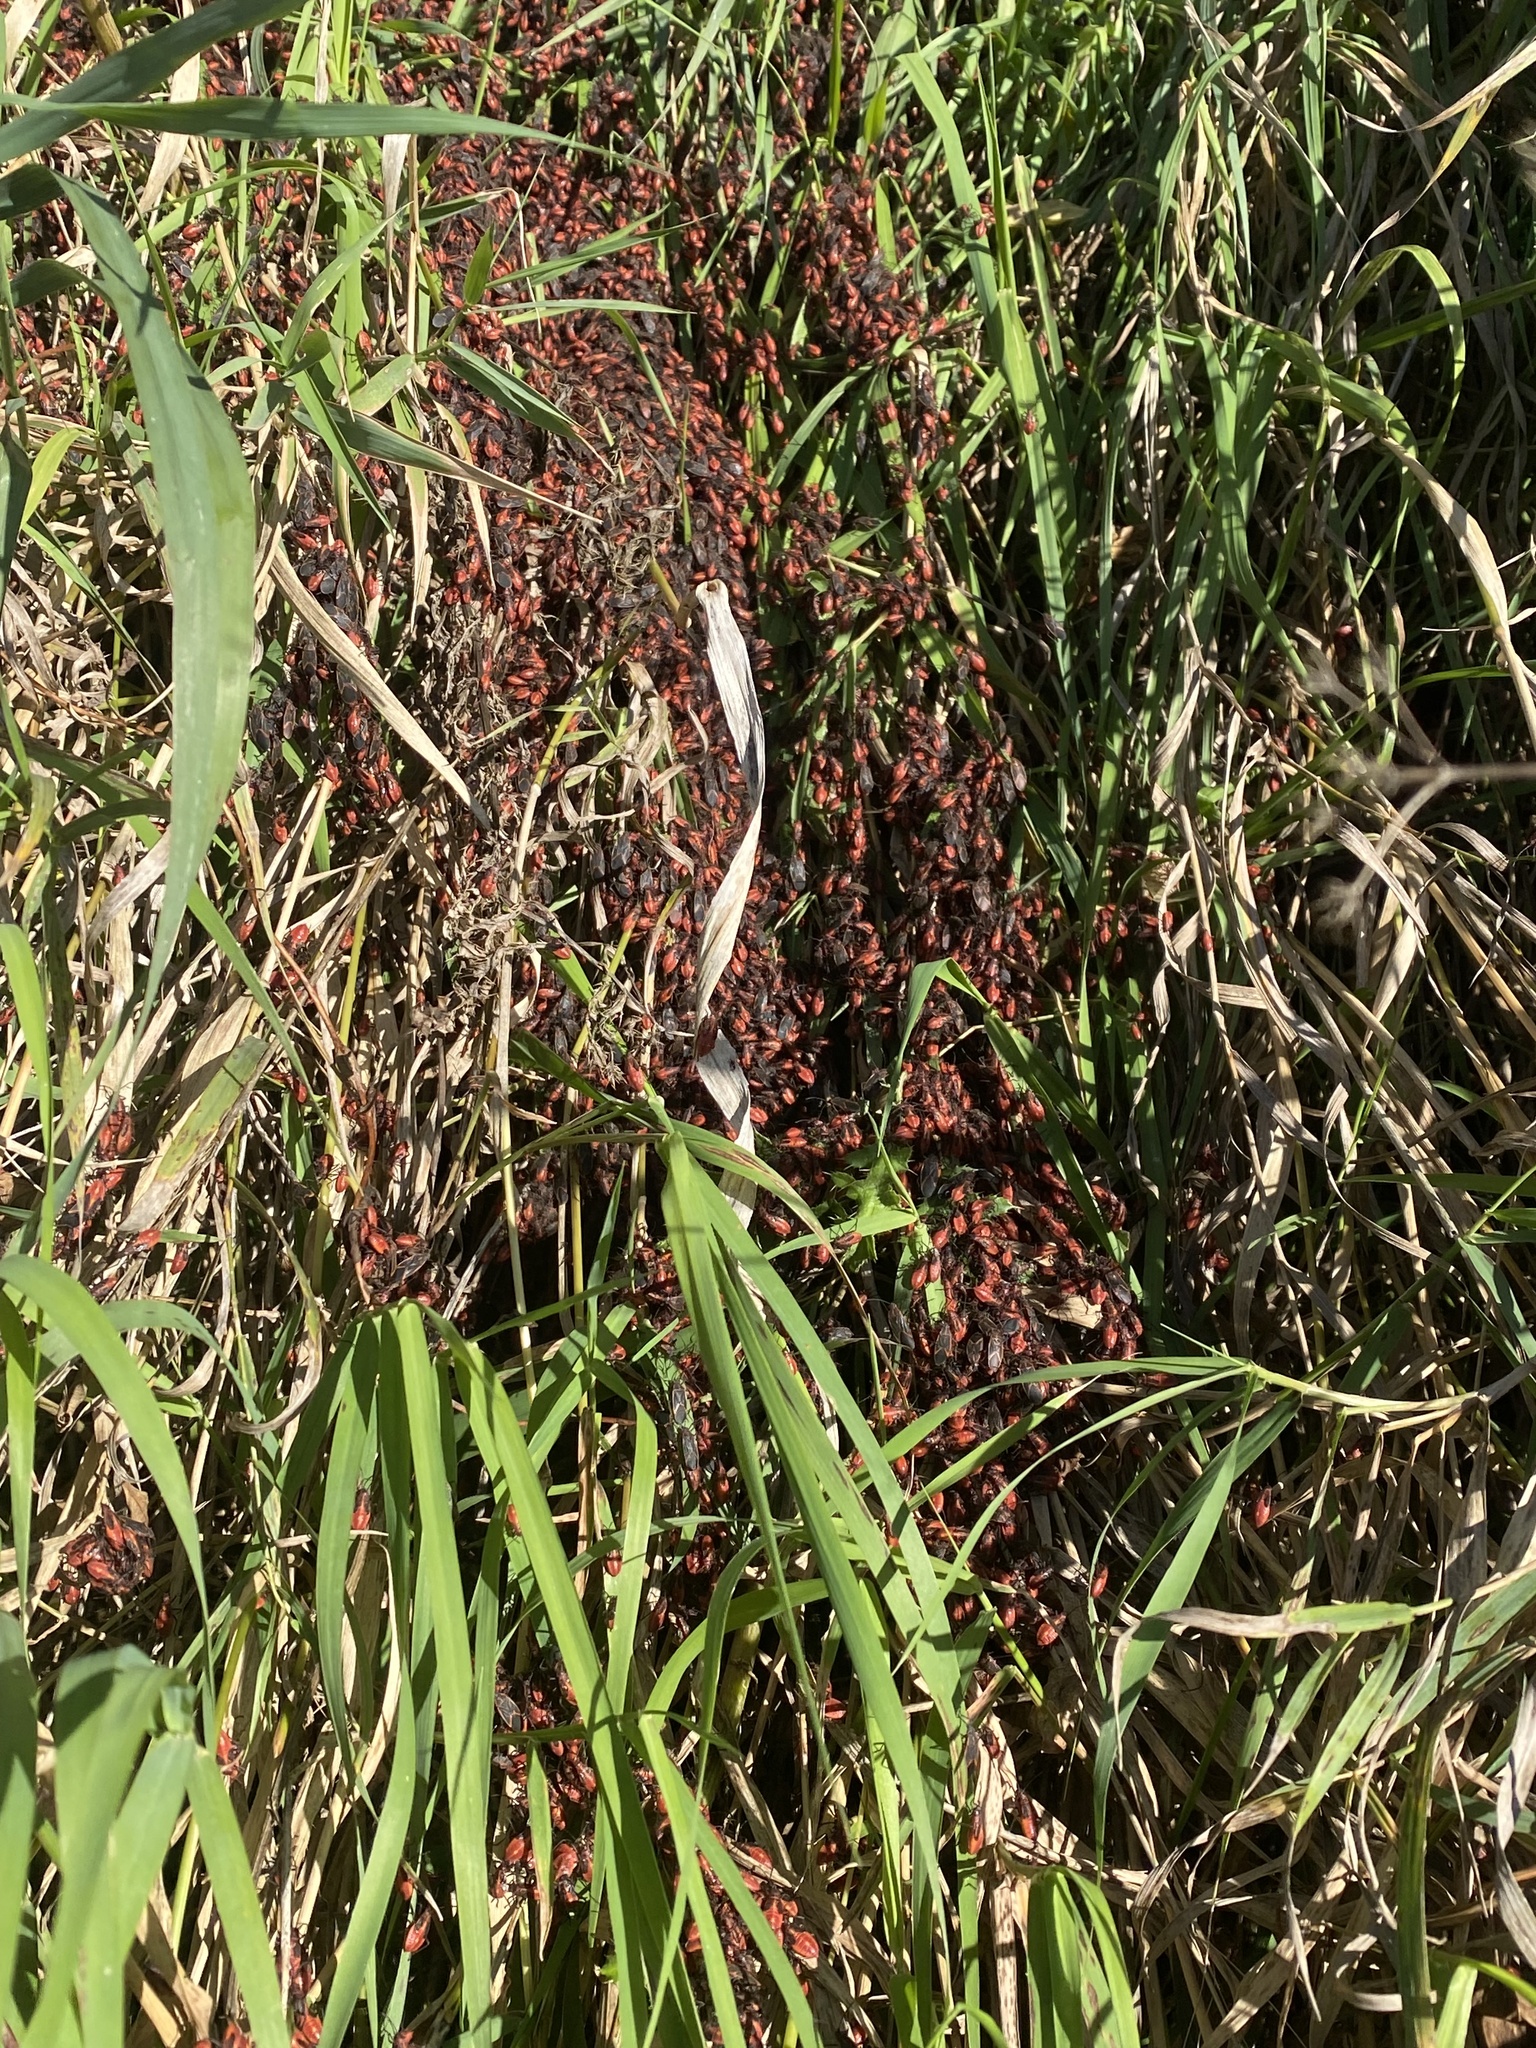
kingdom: Animalia
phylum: Arthropoda
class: Insecta
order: Hemiptera
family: Rhopalidae
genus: Boisea
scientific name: Boisea trivittata
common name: Boxelder bug
